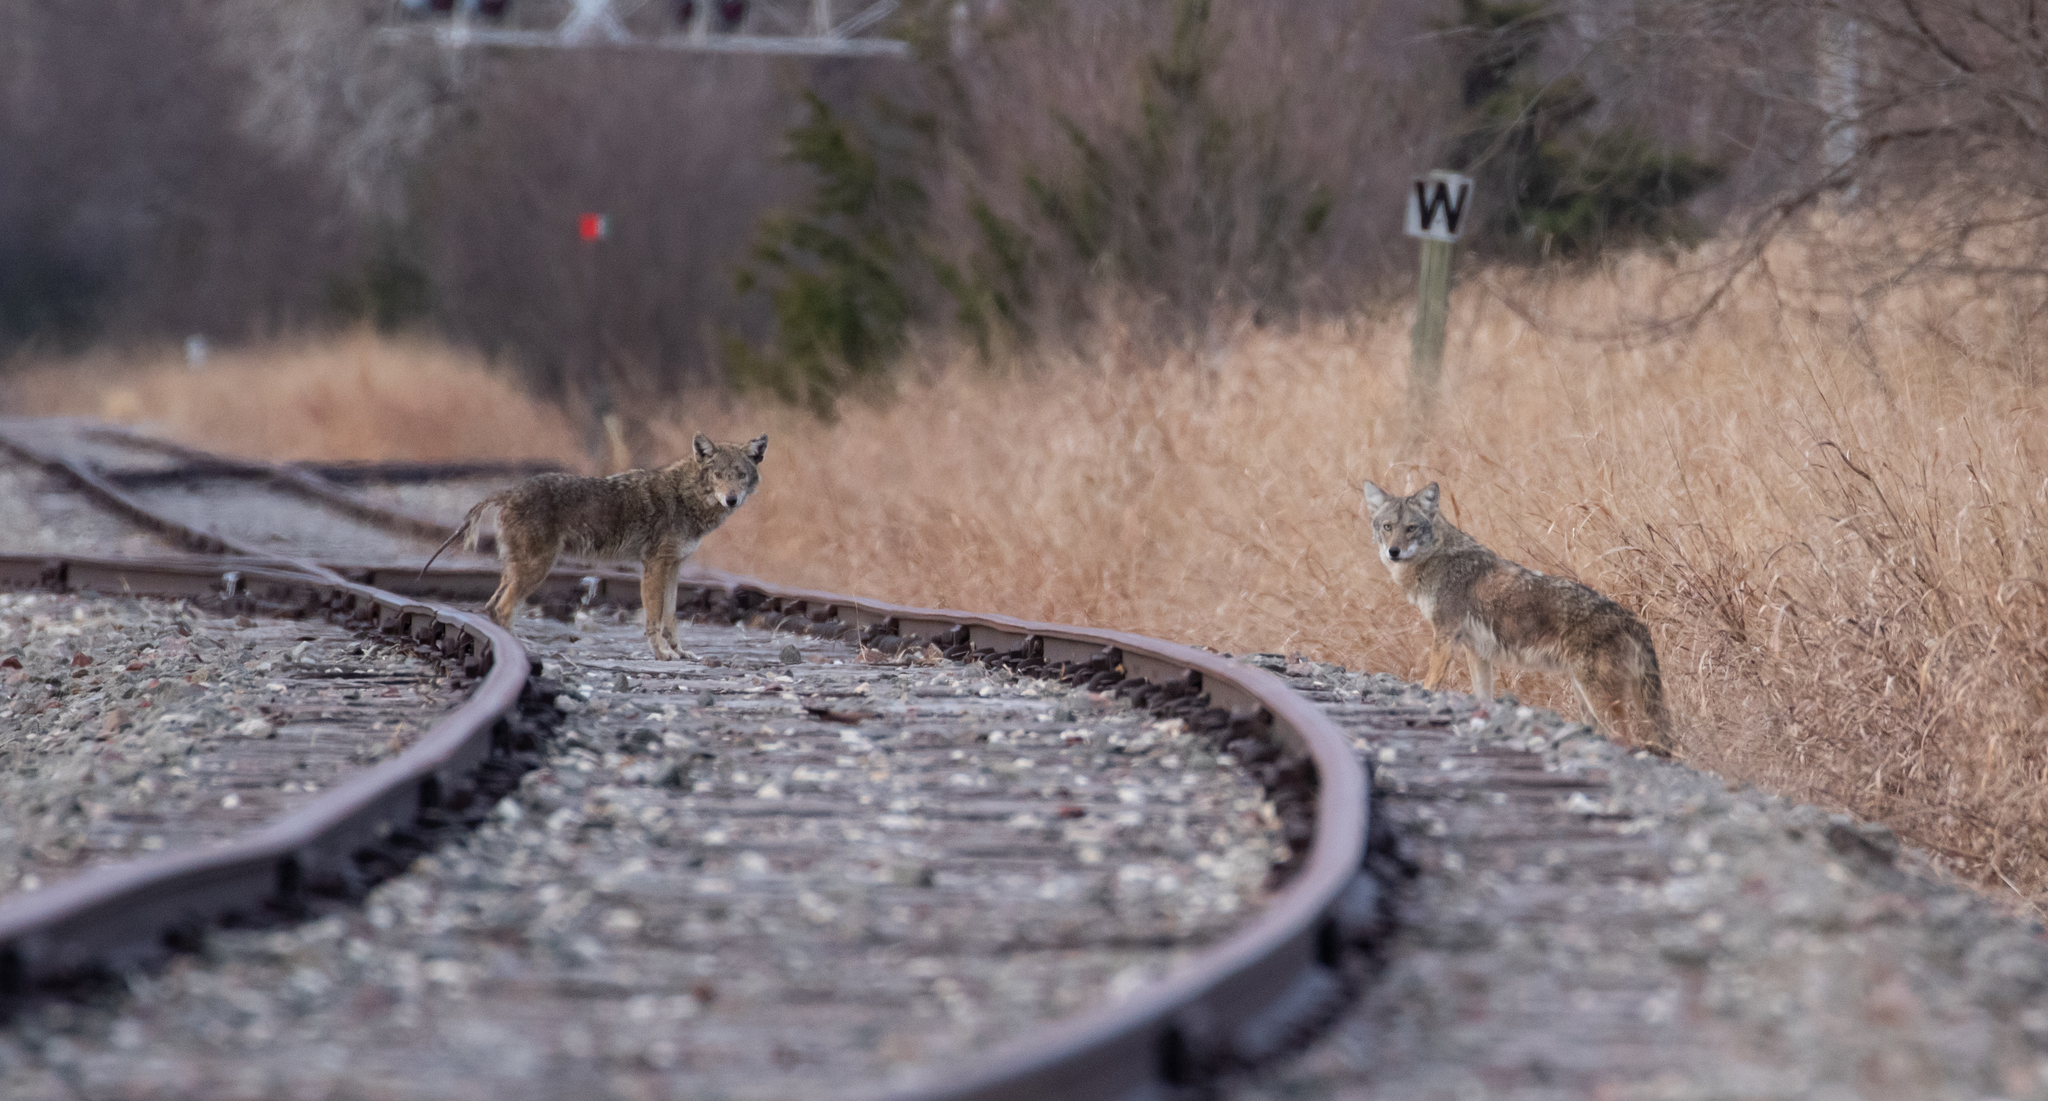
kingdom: Animalia
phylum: Chordata
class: Mammalia
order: Carnivora
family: Canidae
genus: Canis
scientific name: Canis latrans
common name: Coyote
